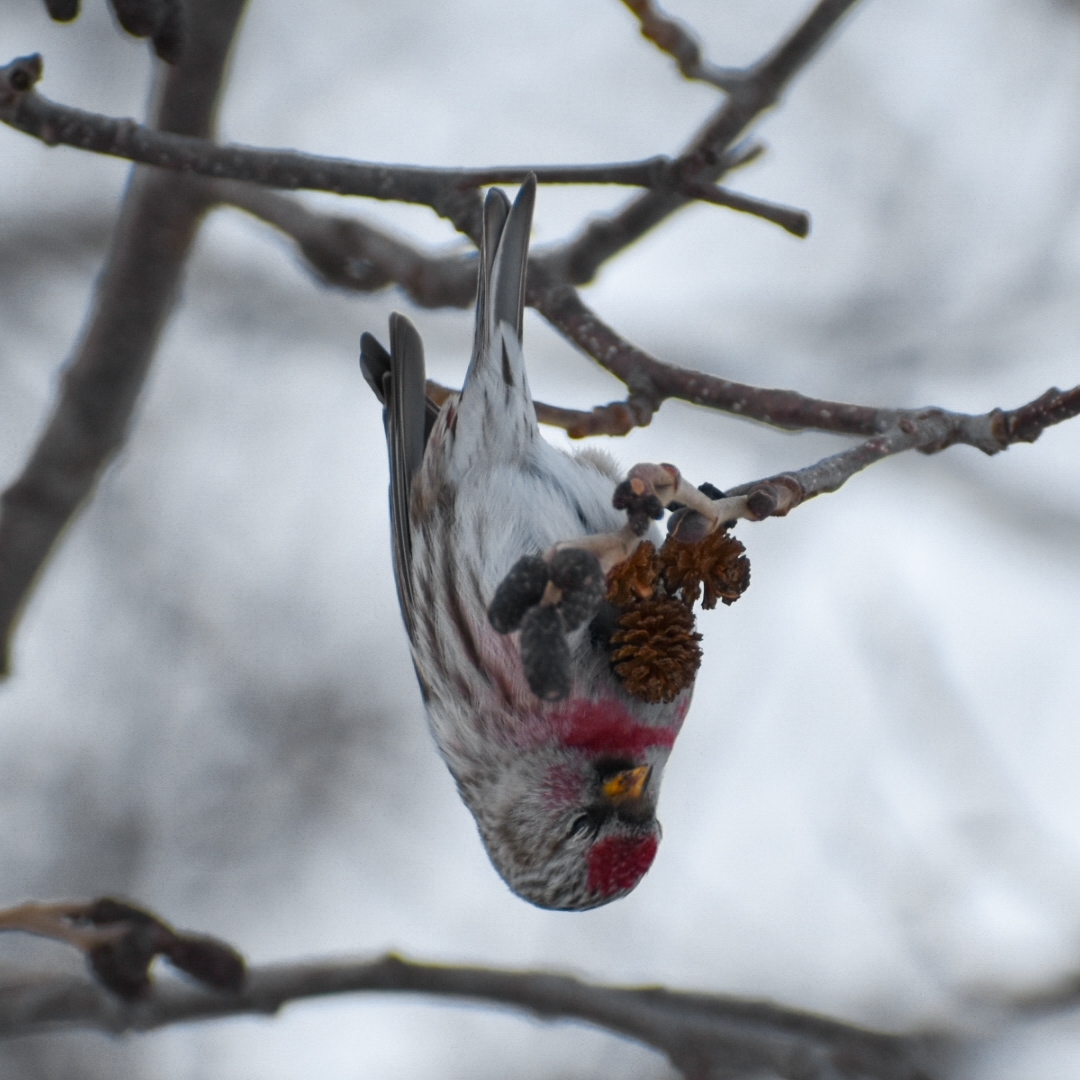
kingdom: Animalia
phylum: Chordata
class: Aves
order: Passeriformes
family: Fringillidae
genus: Acanthis
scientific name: Acanthis flammea
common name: Common redpoll
